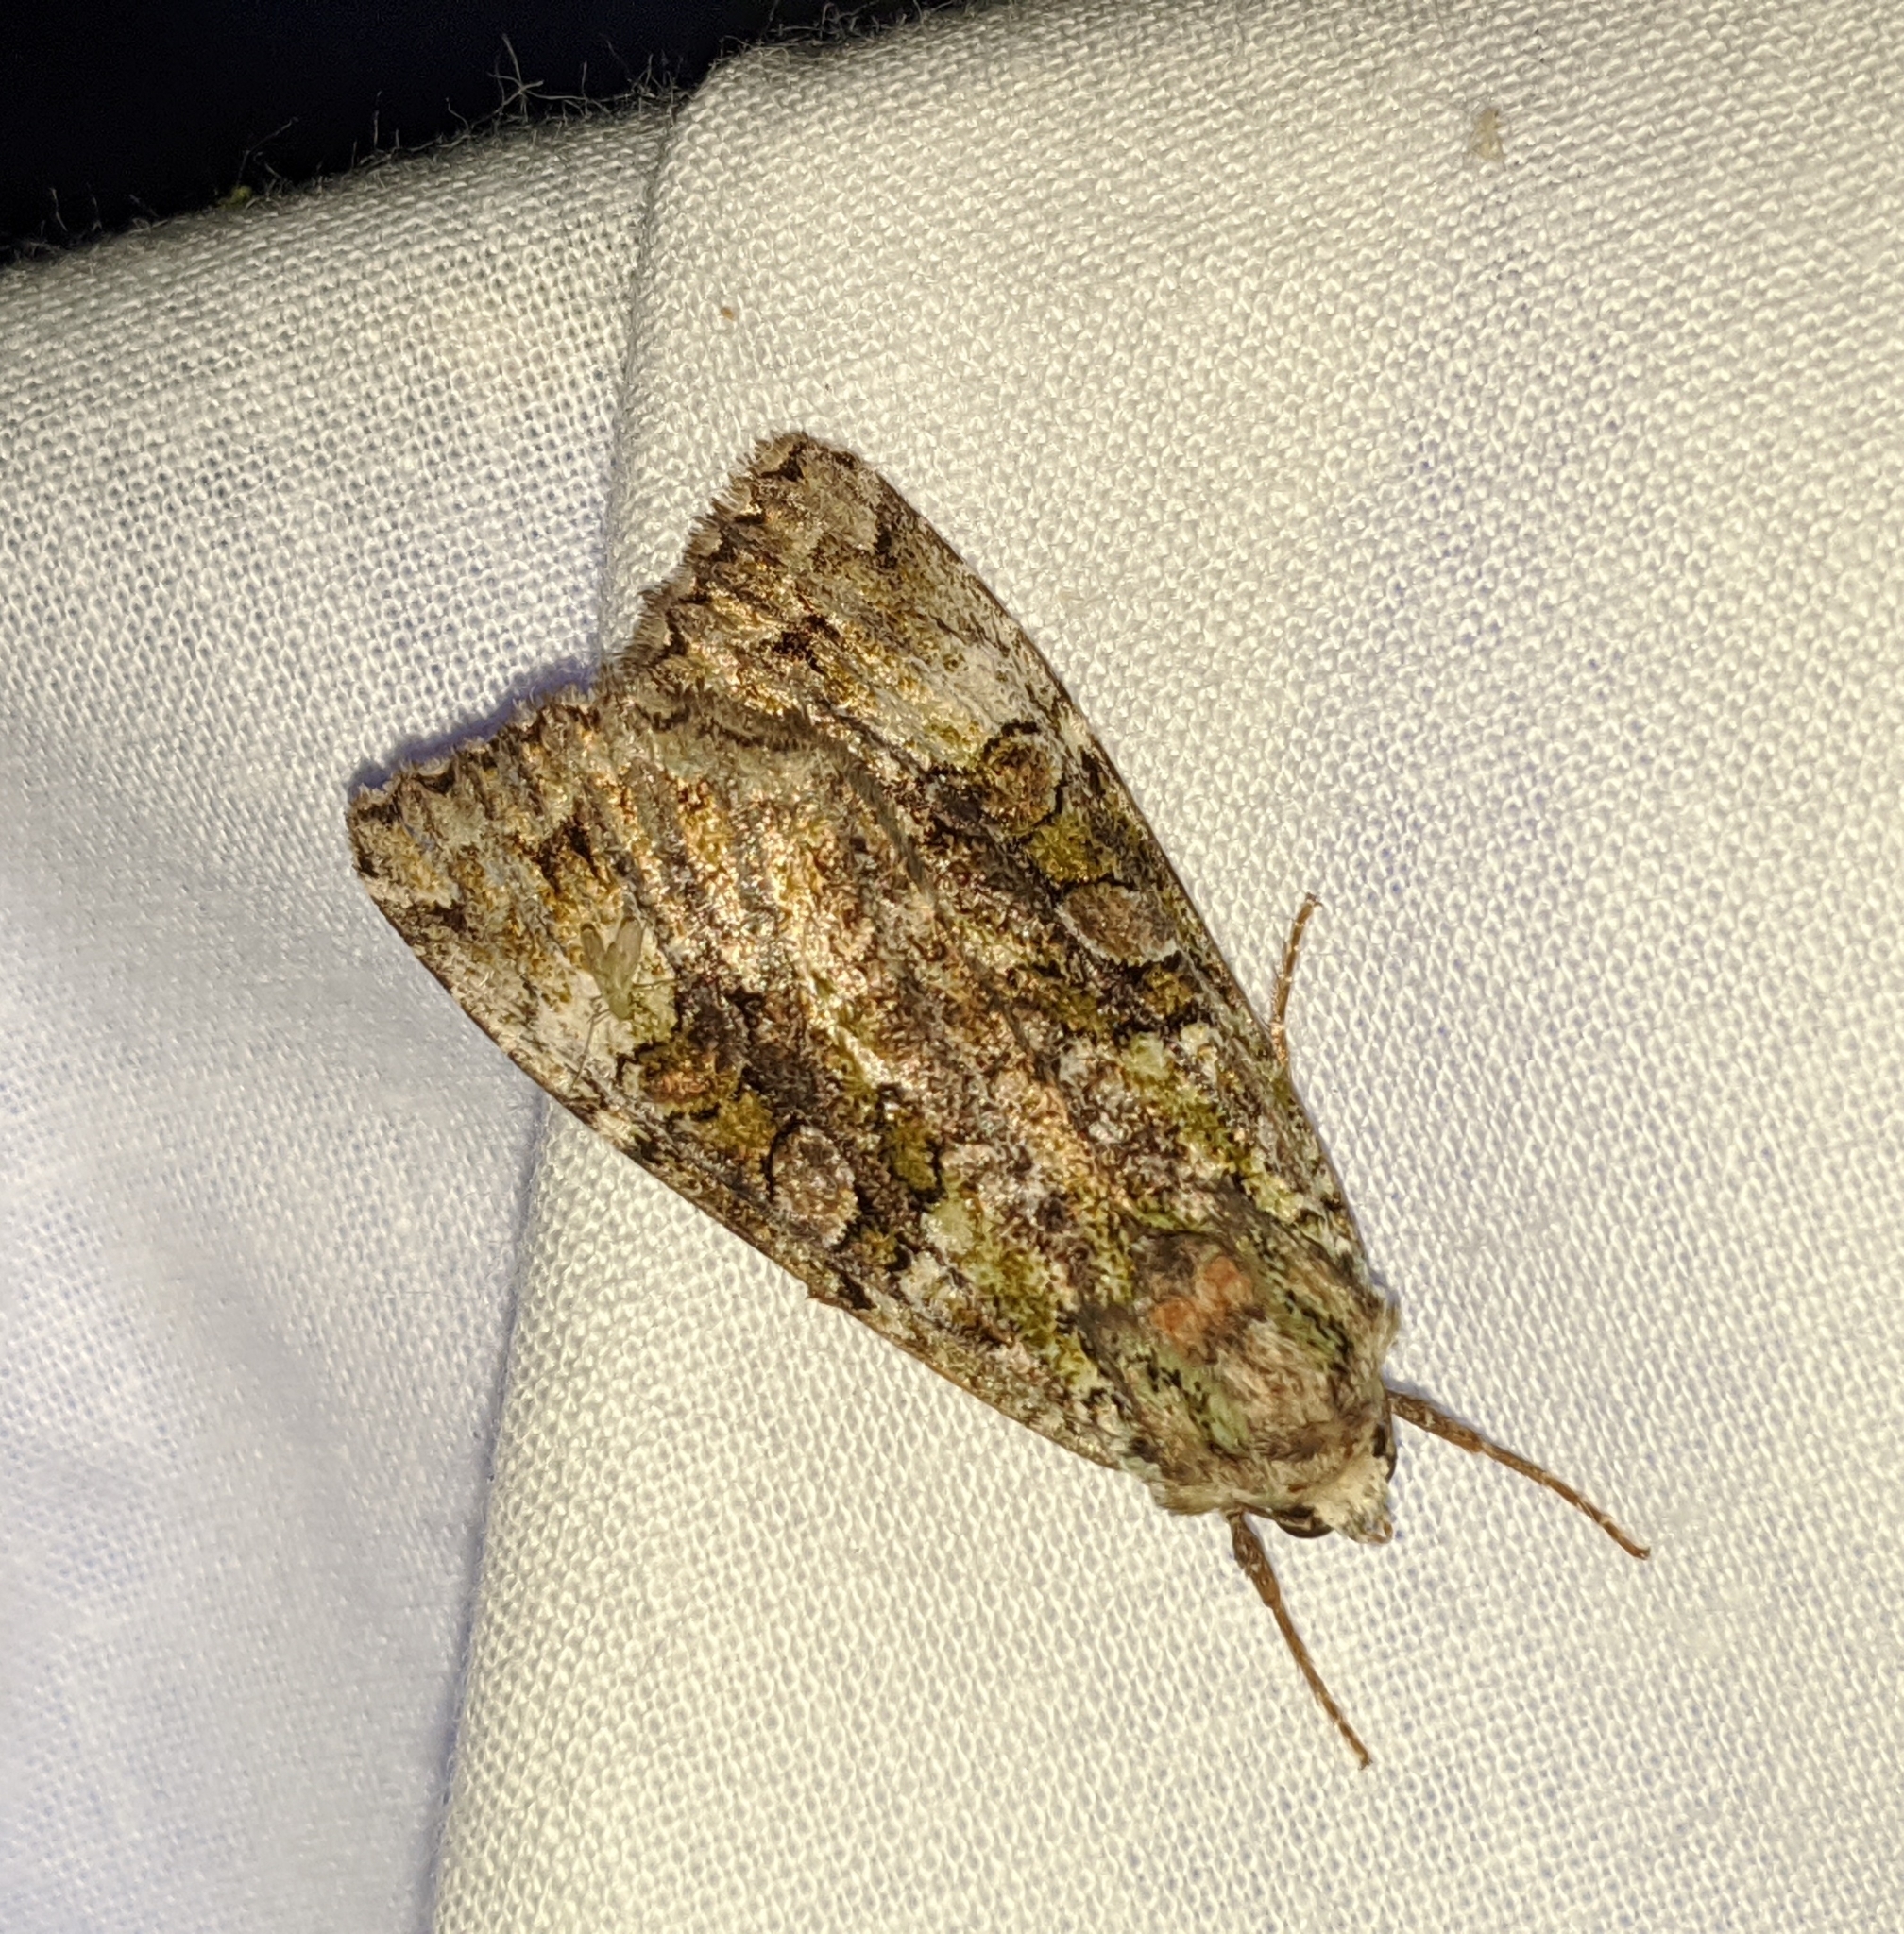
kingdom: Animalia
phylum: Arthropoda
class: Insecta
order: Lepidoptera
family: Noctuidae
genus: Anaplectoides
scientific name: Anaplectoides prasina
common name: Green arches
